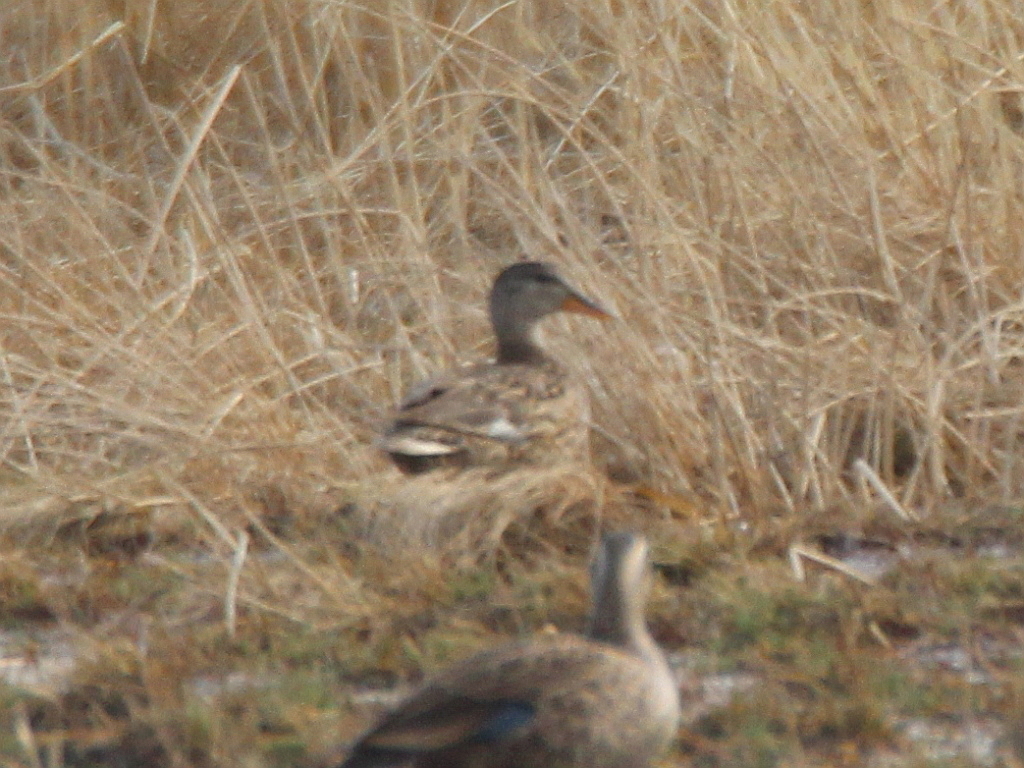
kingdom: Animalia
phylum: Chordata
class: Aves
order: Anseriformes
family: Anatidae
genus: Mareca
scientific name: Mareca strepera
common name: Gadwall
